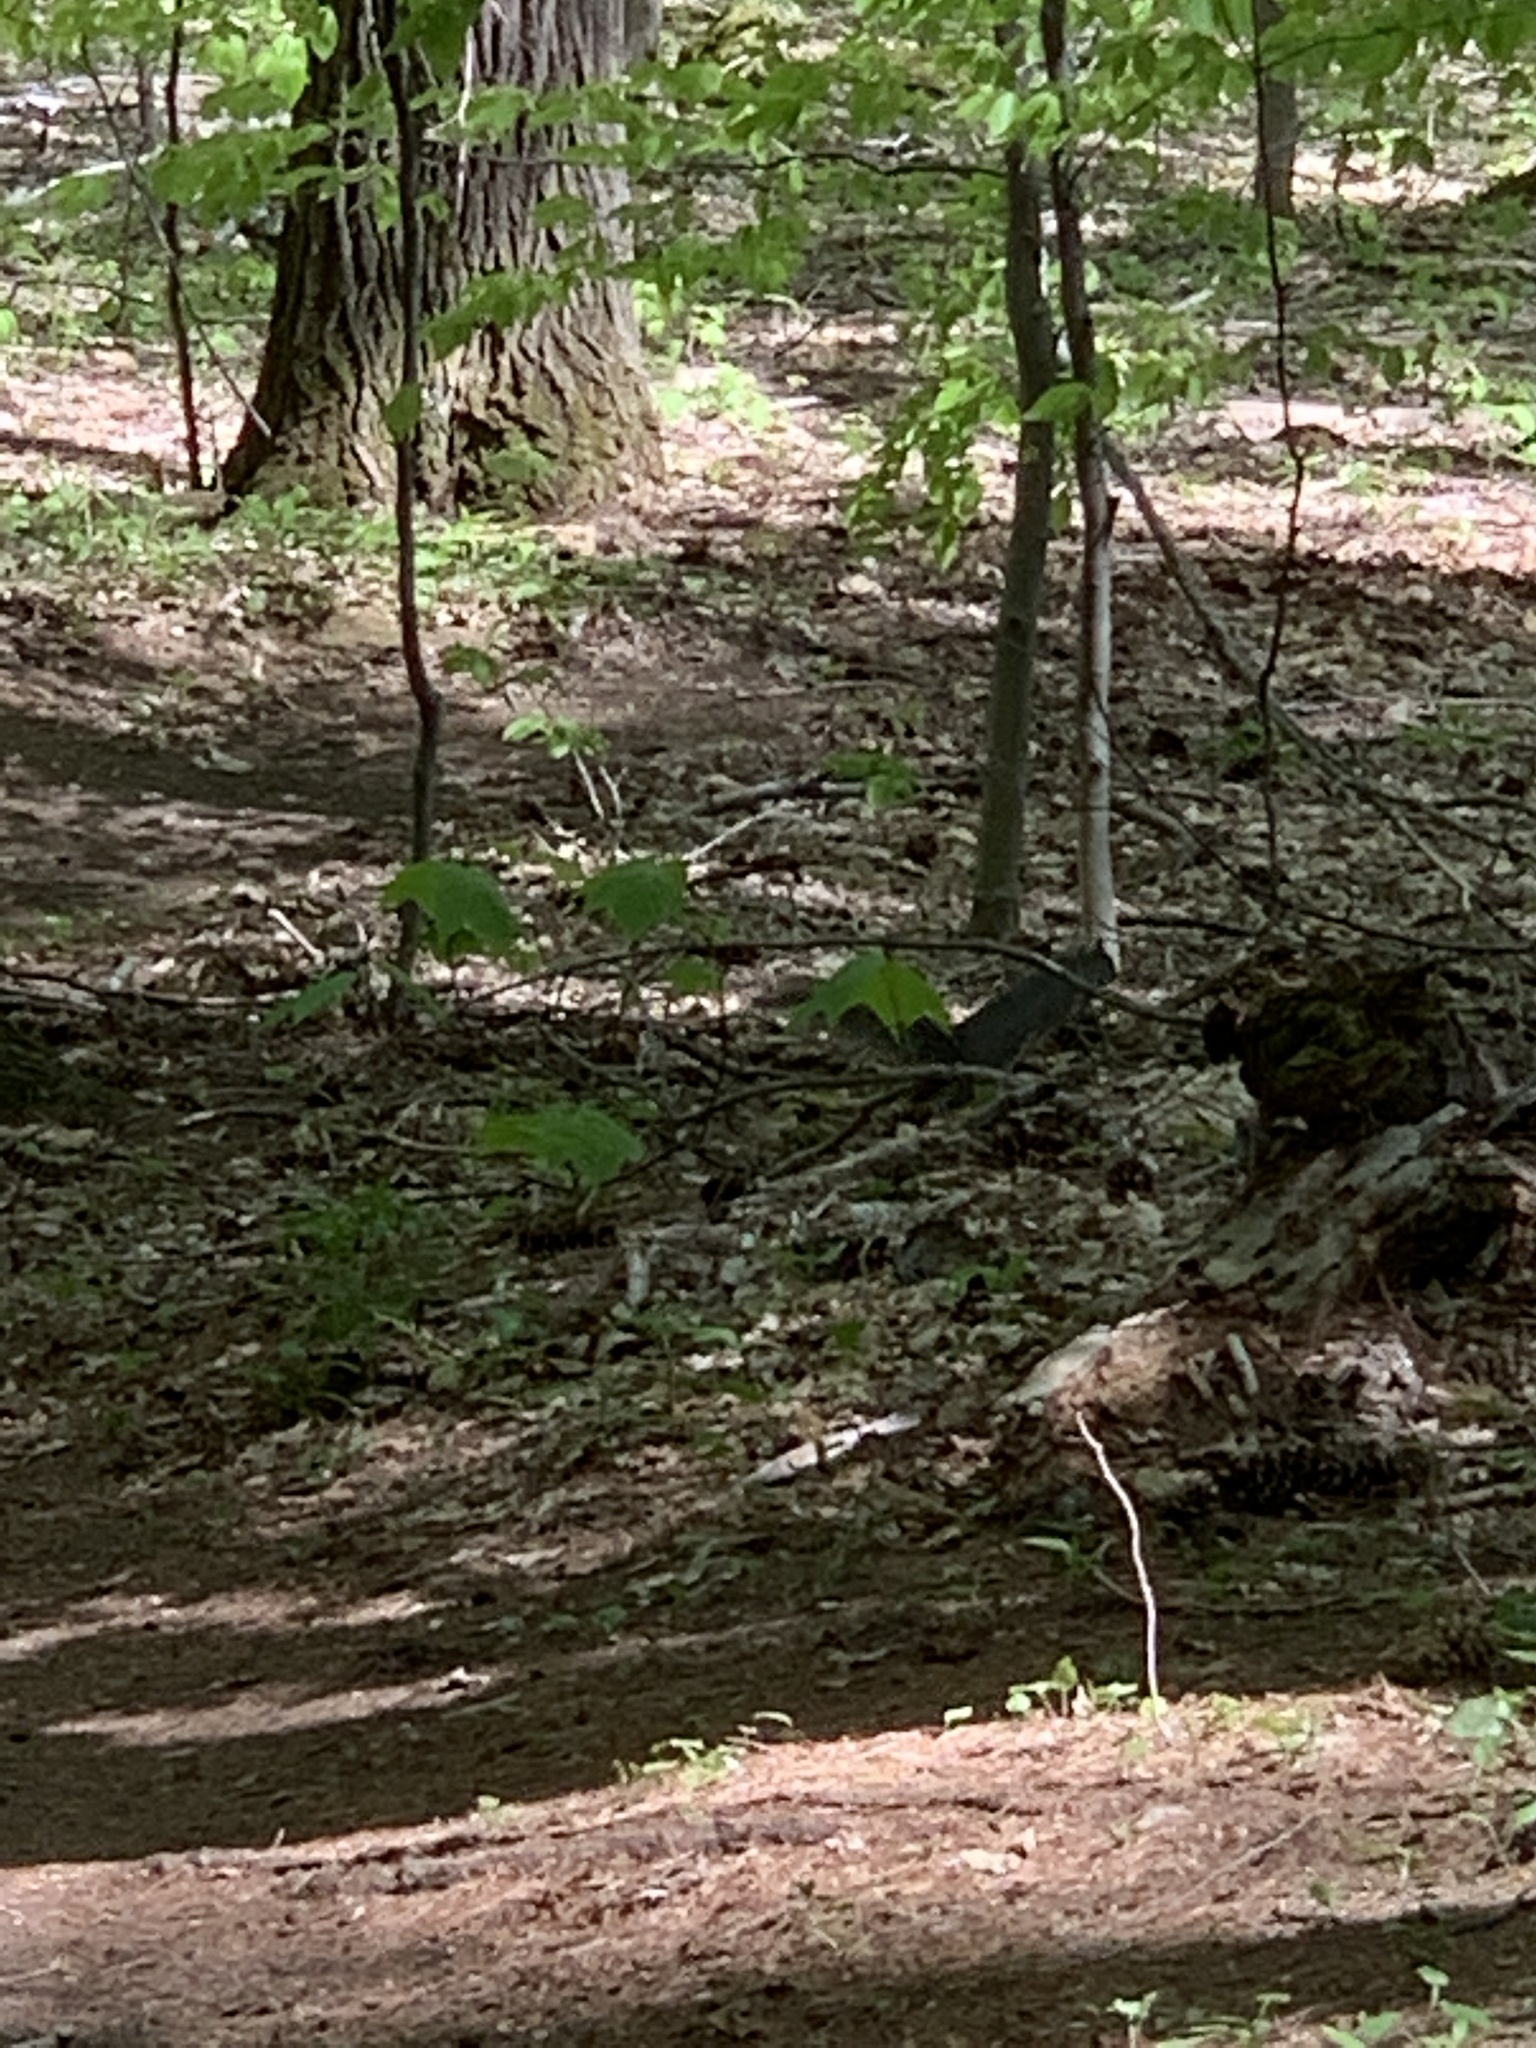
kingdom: Animalia
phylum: Chordata
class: Mammalia
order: Rodentia
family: Sciuridae
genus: Sciurus
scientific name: Sciurus carolinensis
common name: Eastern gray squirrel
